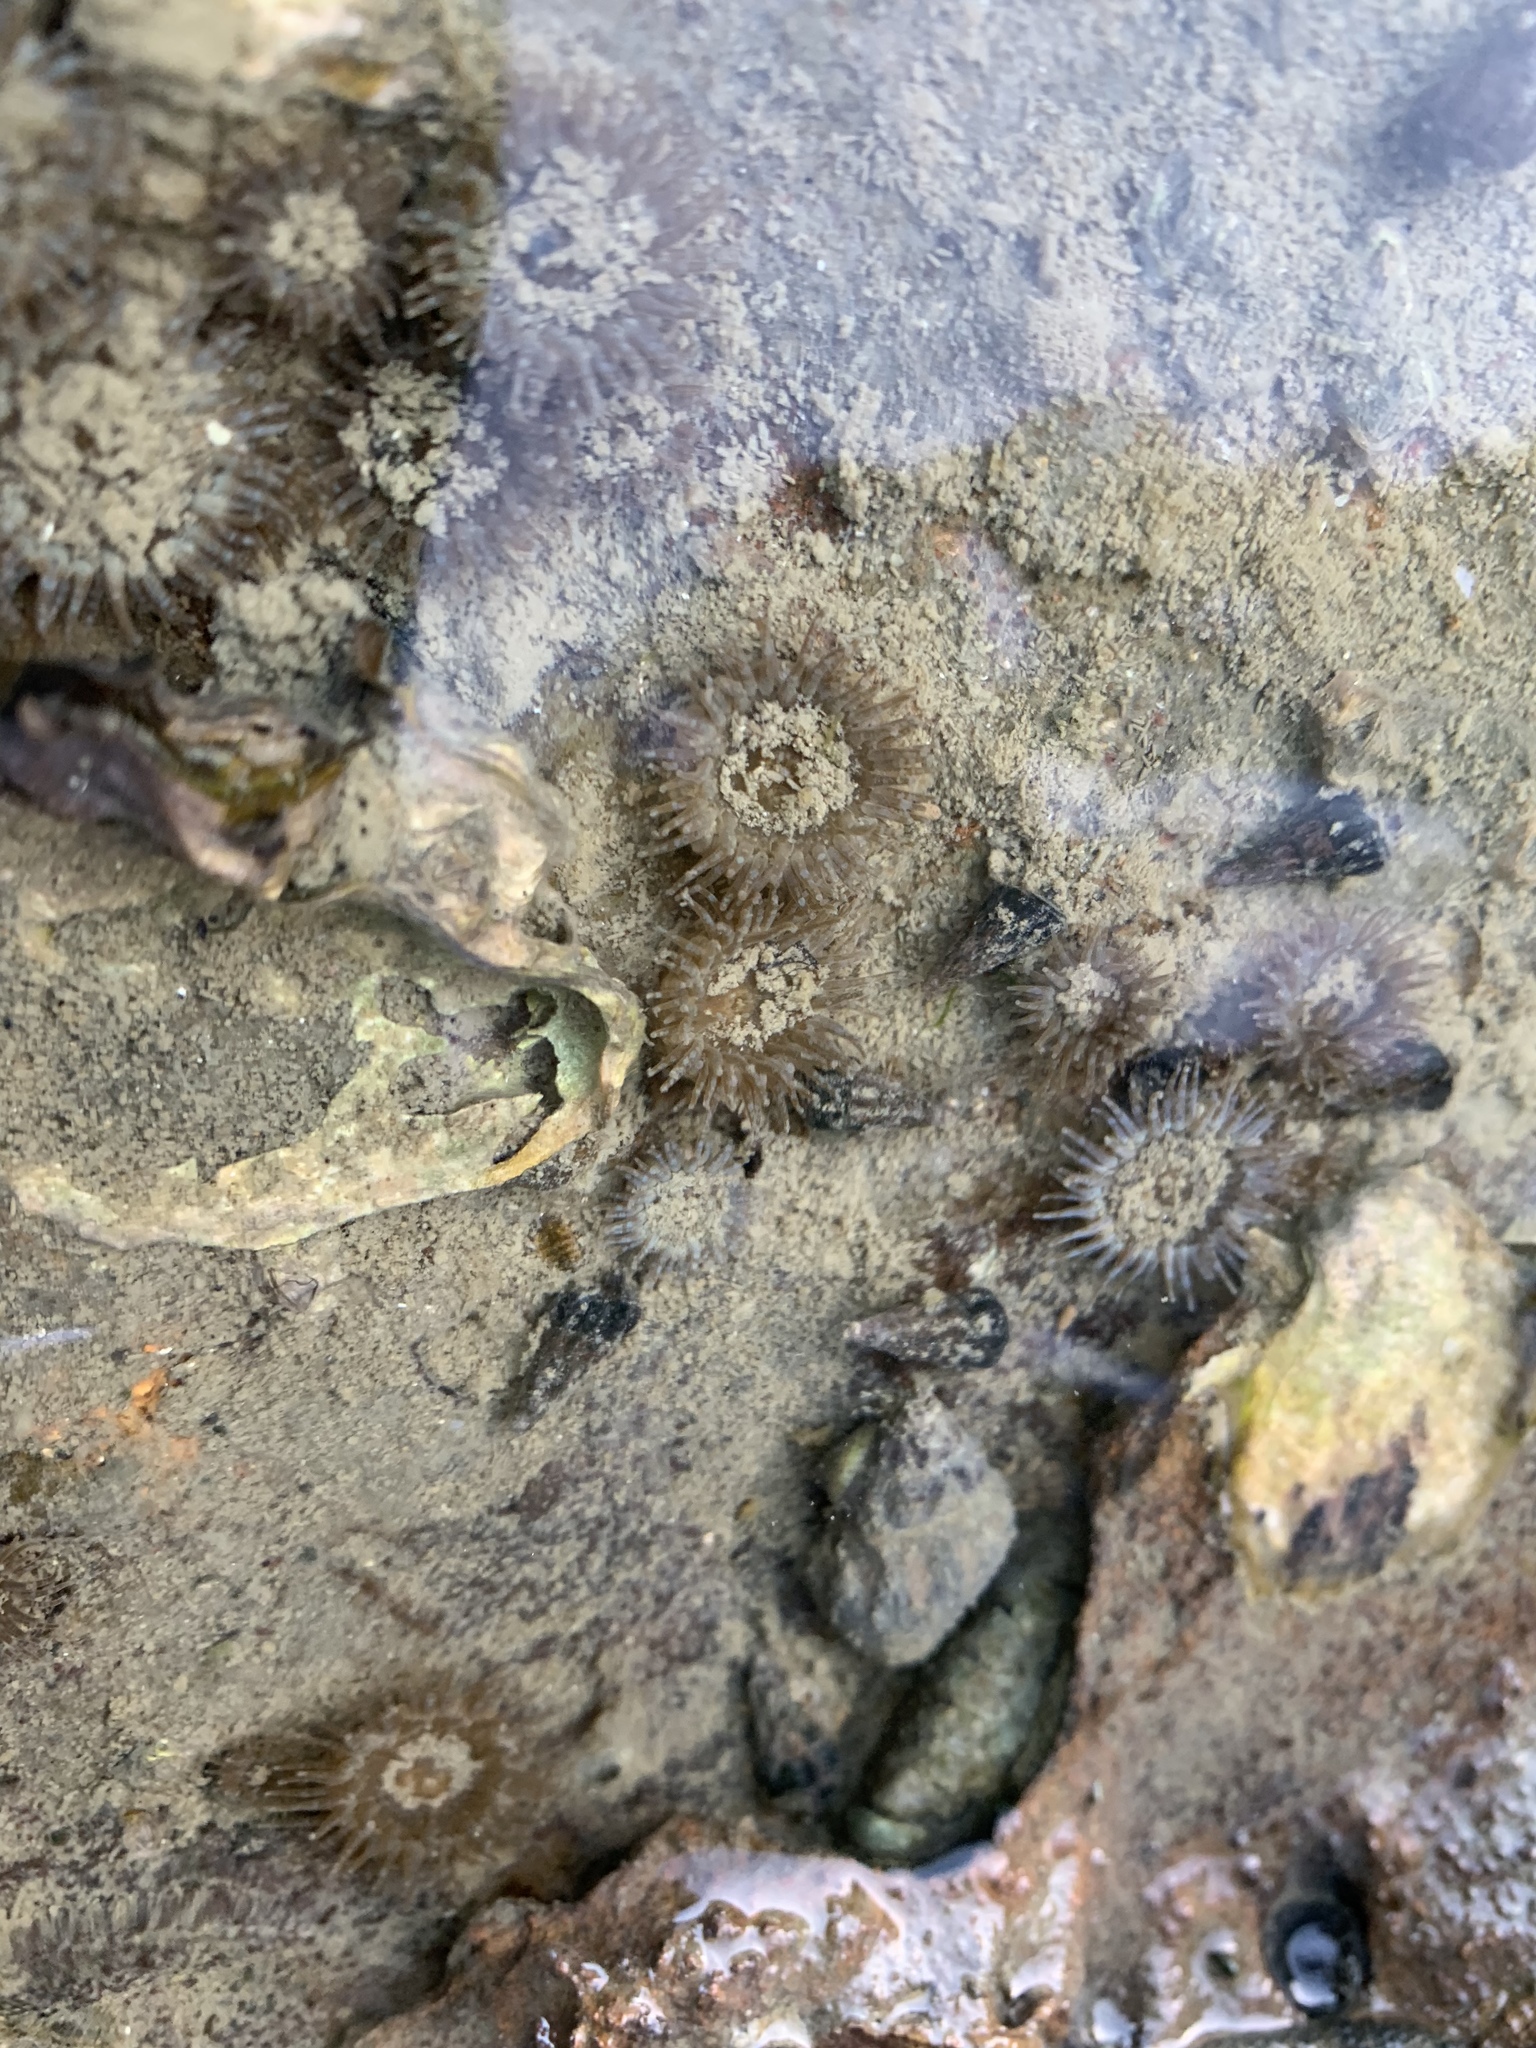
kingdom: Animalia
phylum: Cnidaria
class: Anthozoa
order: Actiniaria
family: Actiniidae
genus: Anthopleura
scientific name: Anthopleura hermaphroditica
